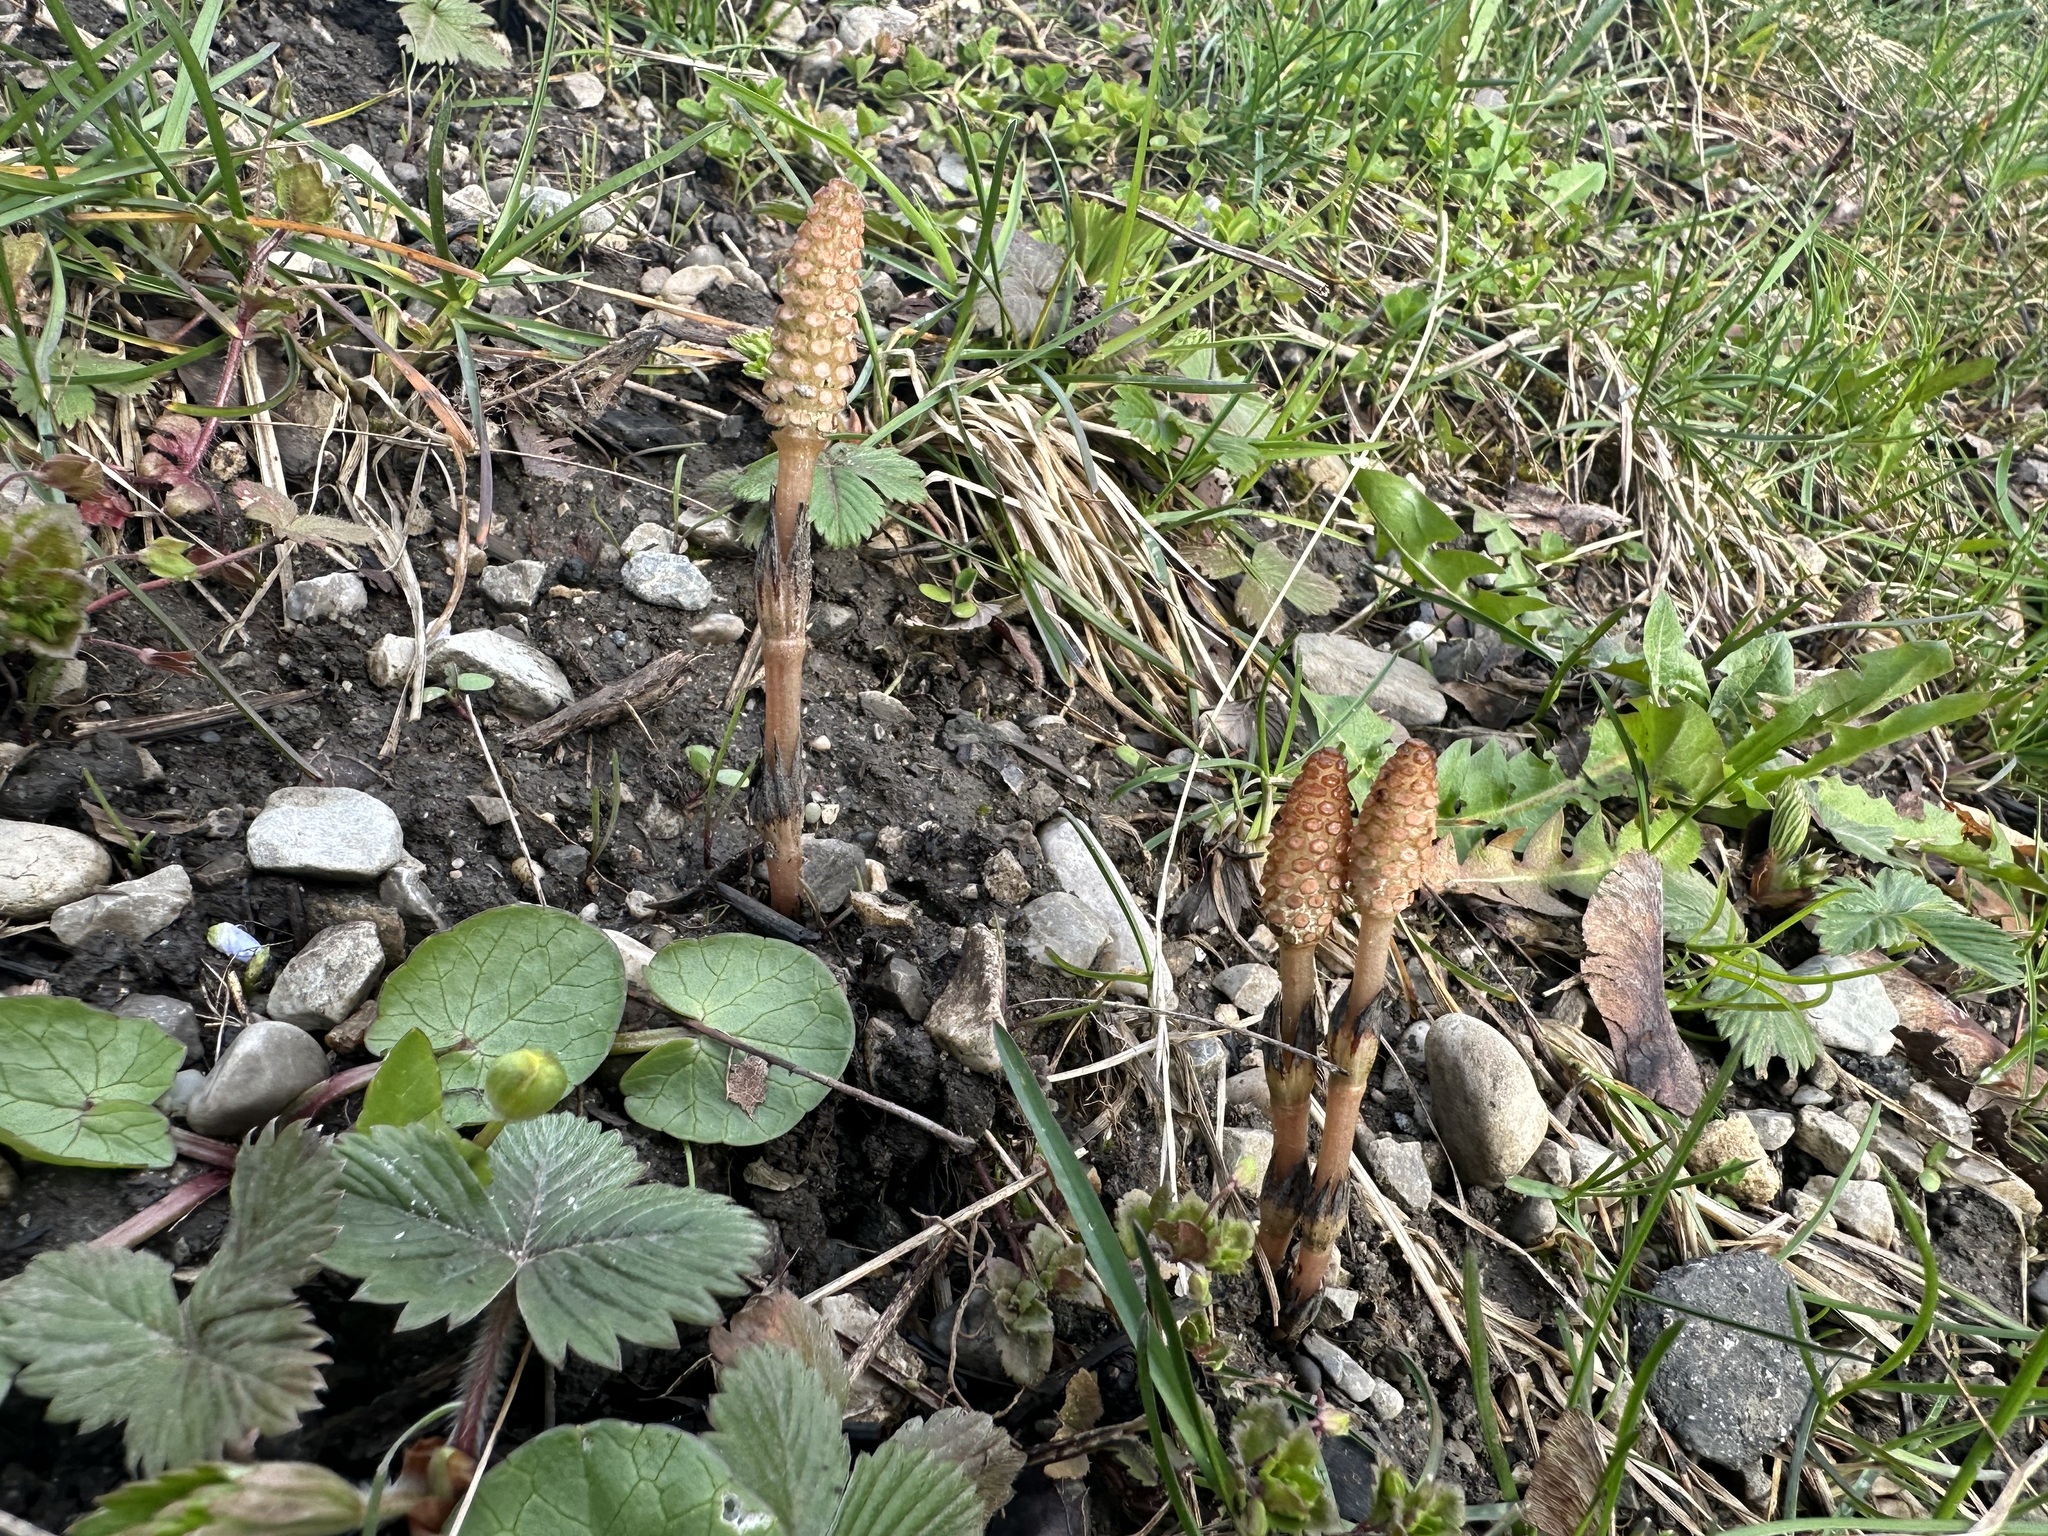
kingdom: Plantae
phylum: Tracheophyta
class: Polypodiopsida
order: Equisetales
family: Equisetaceae
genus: Equisetum
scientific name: Equisetum arvense
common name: Field horsetail
